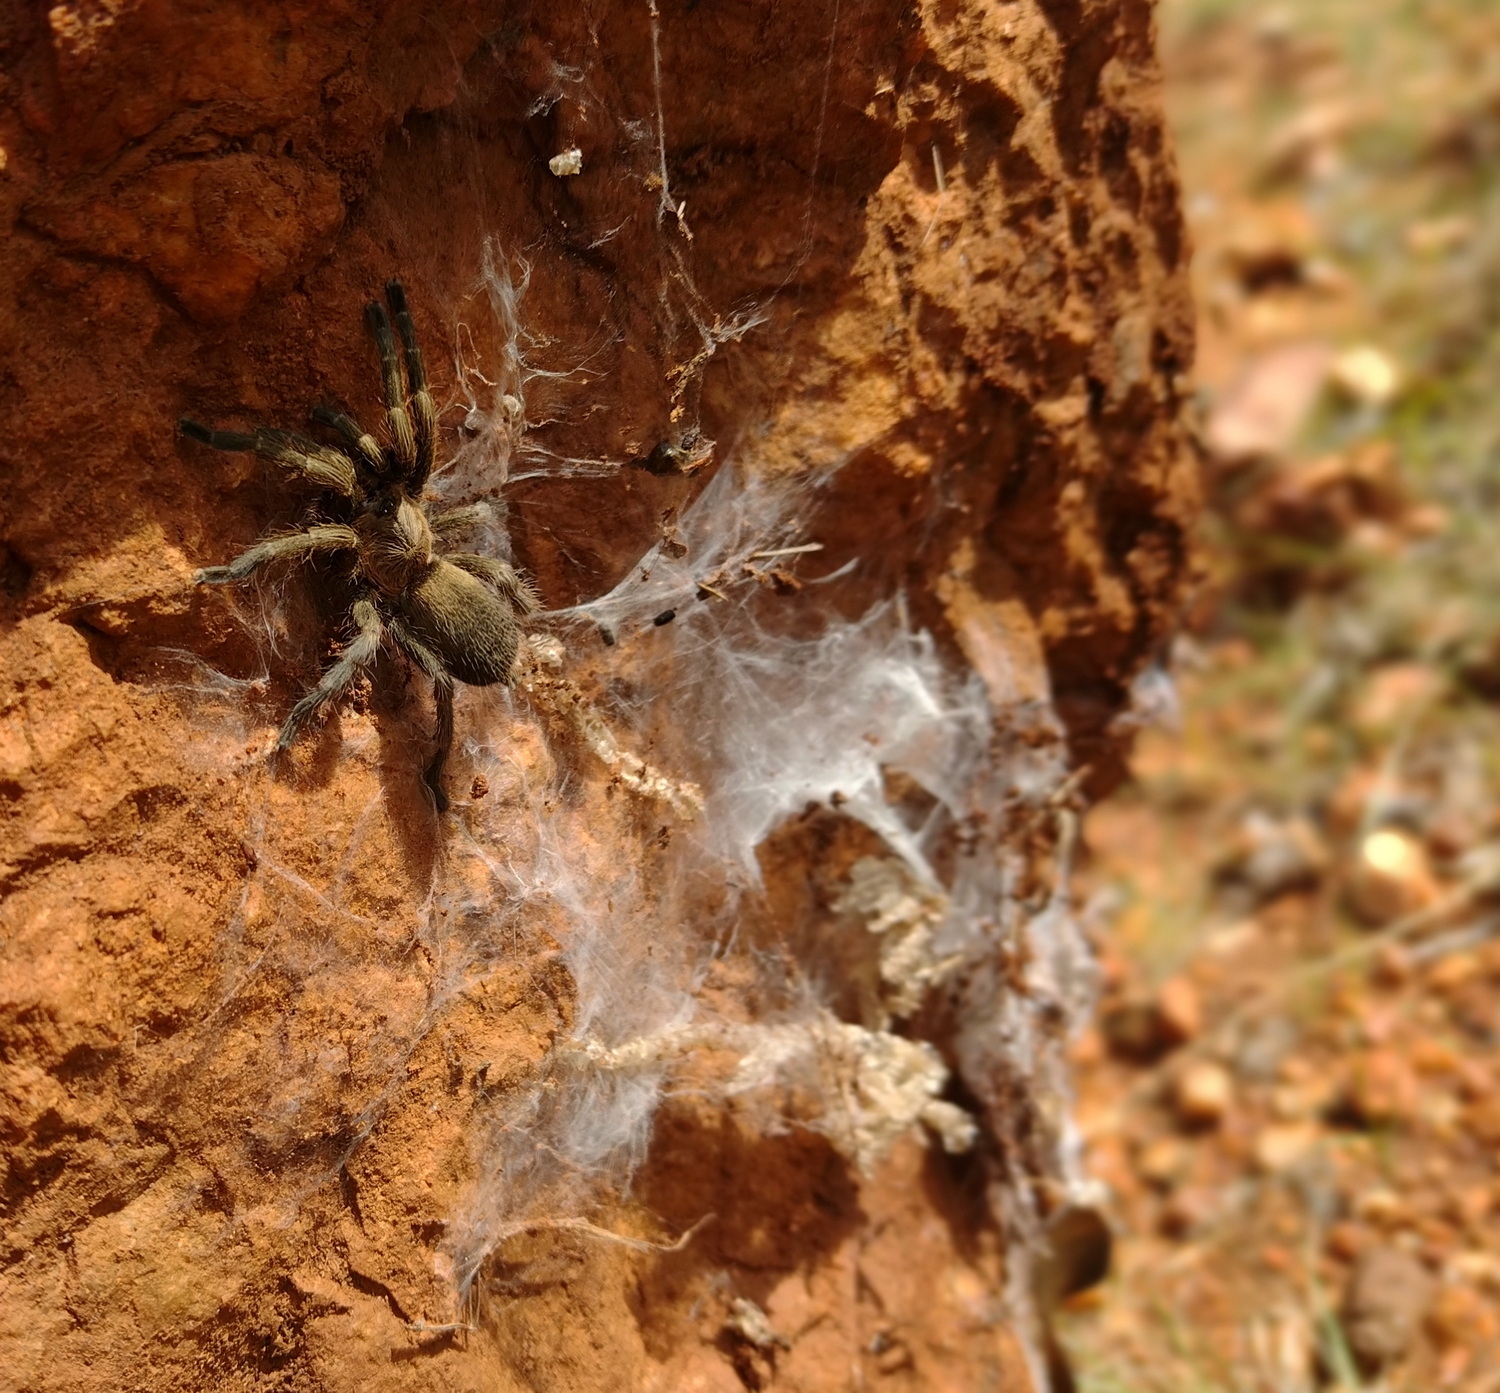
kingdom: Animalia
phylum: Arthropoda
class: Arachnida
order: Araneae
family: Theraphosidae
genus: Dolichothele
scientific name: Dolichothele exilis
